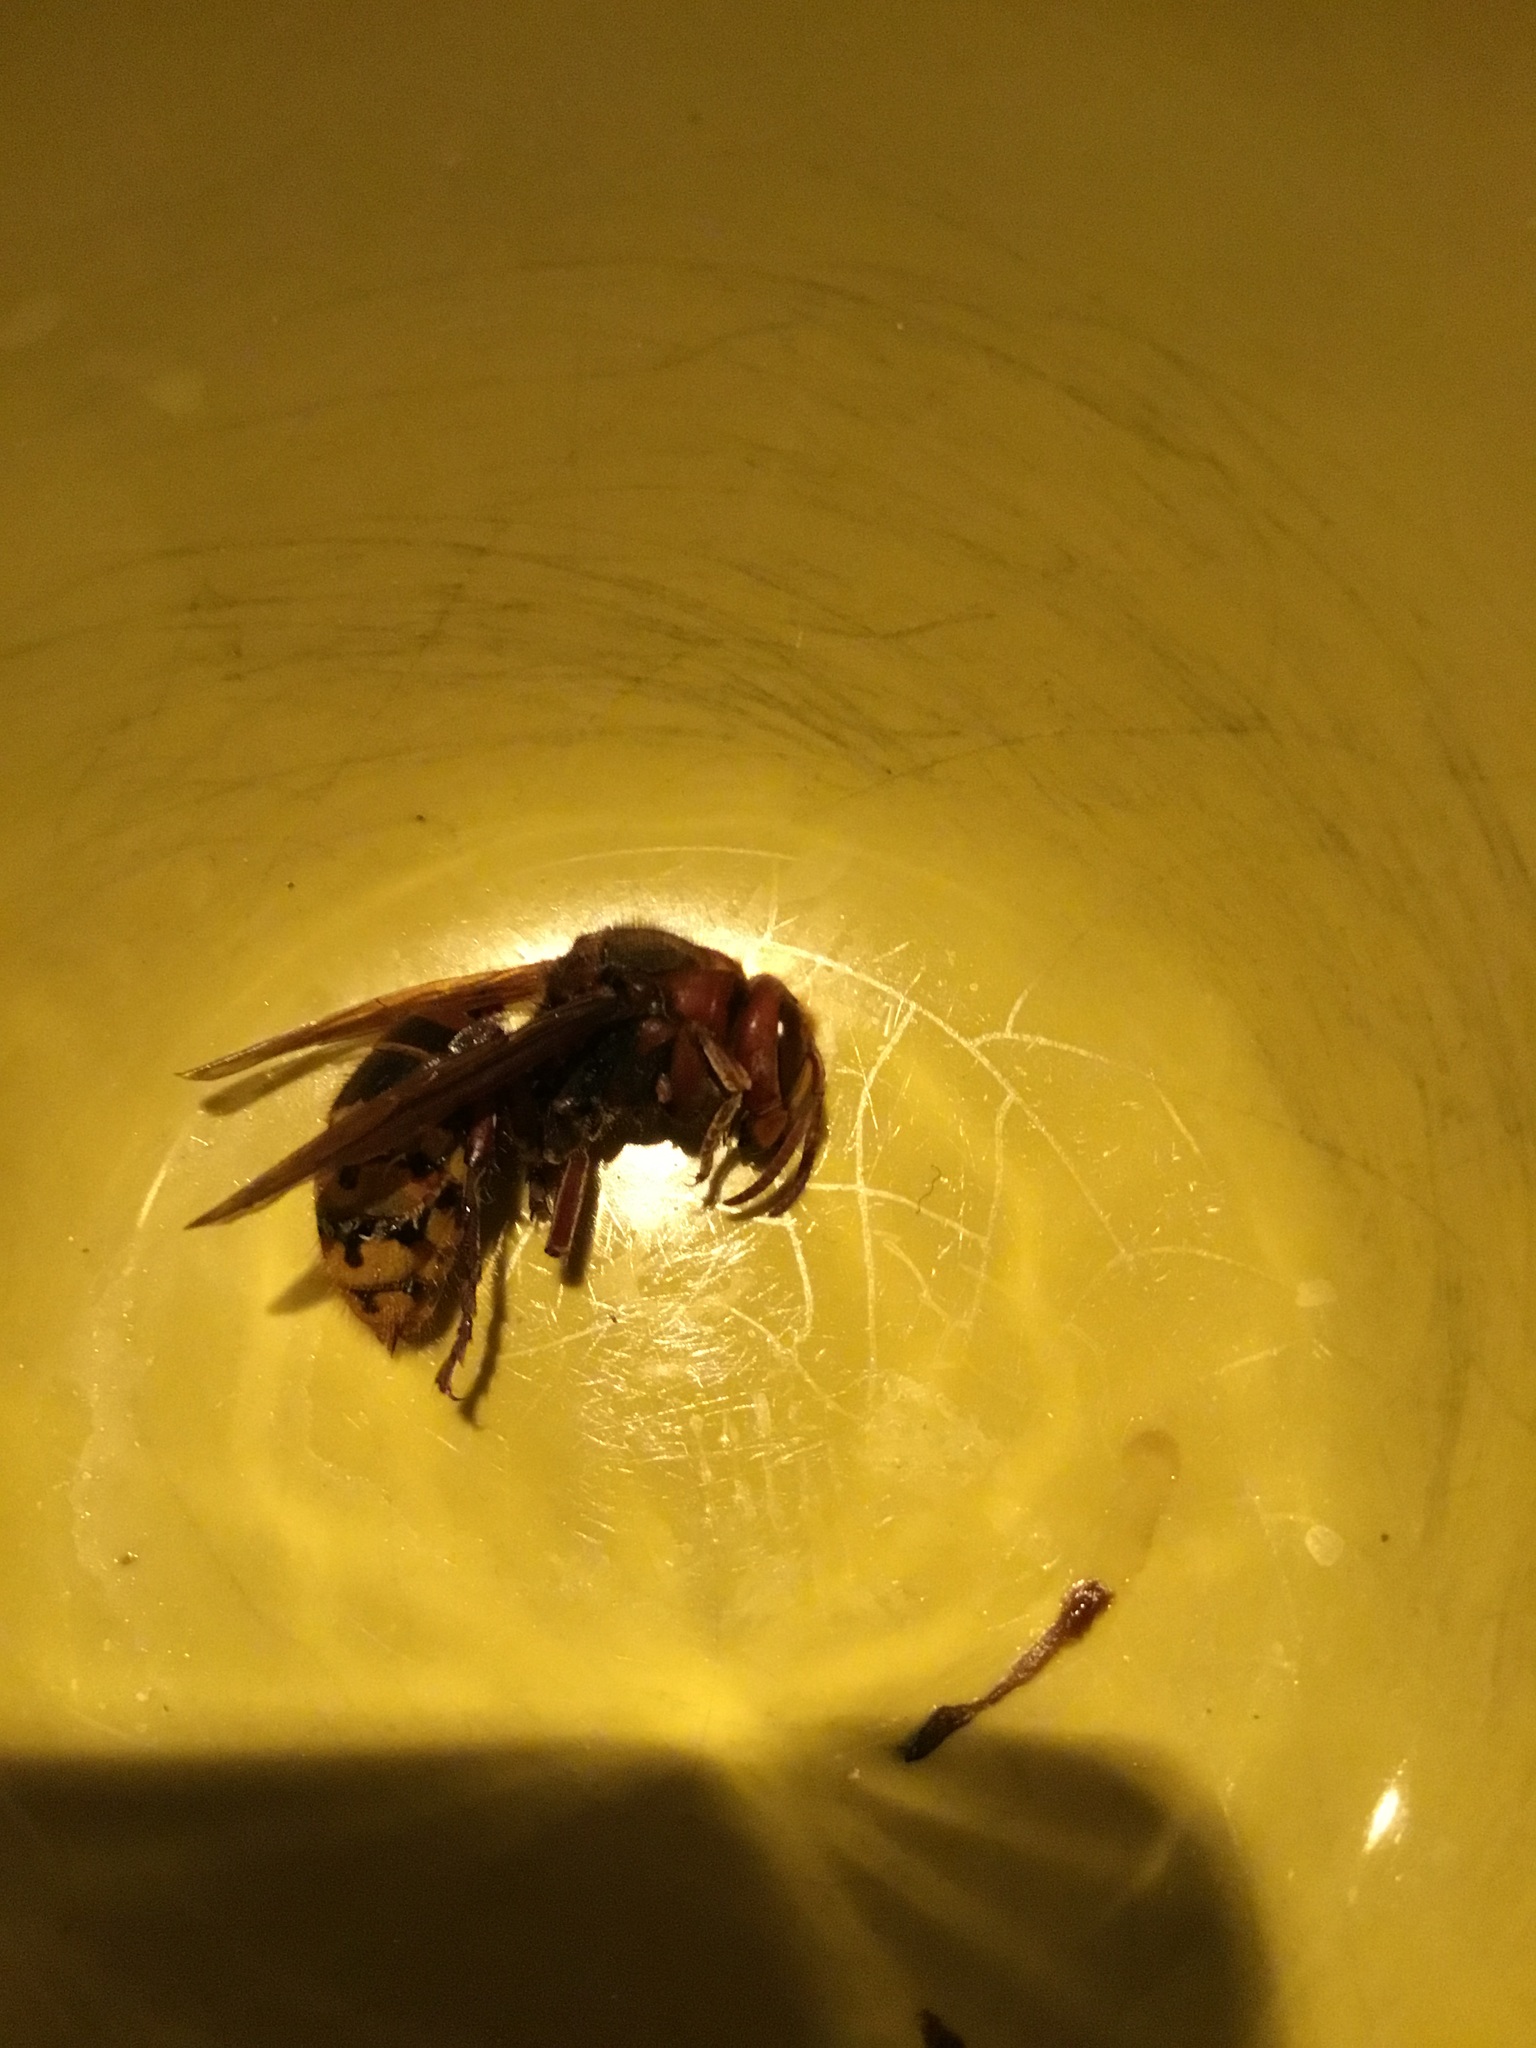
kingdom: Animalia
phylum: Arthropoda
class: Insecta
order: Hymenoptera
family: Vespidae
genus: Vespa
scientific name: Vespa crabro
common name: Hornet
